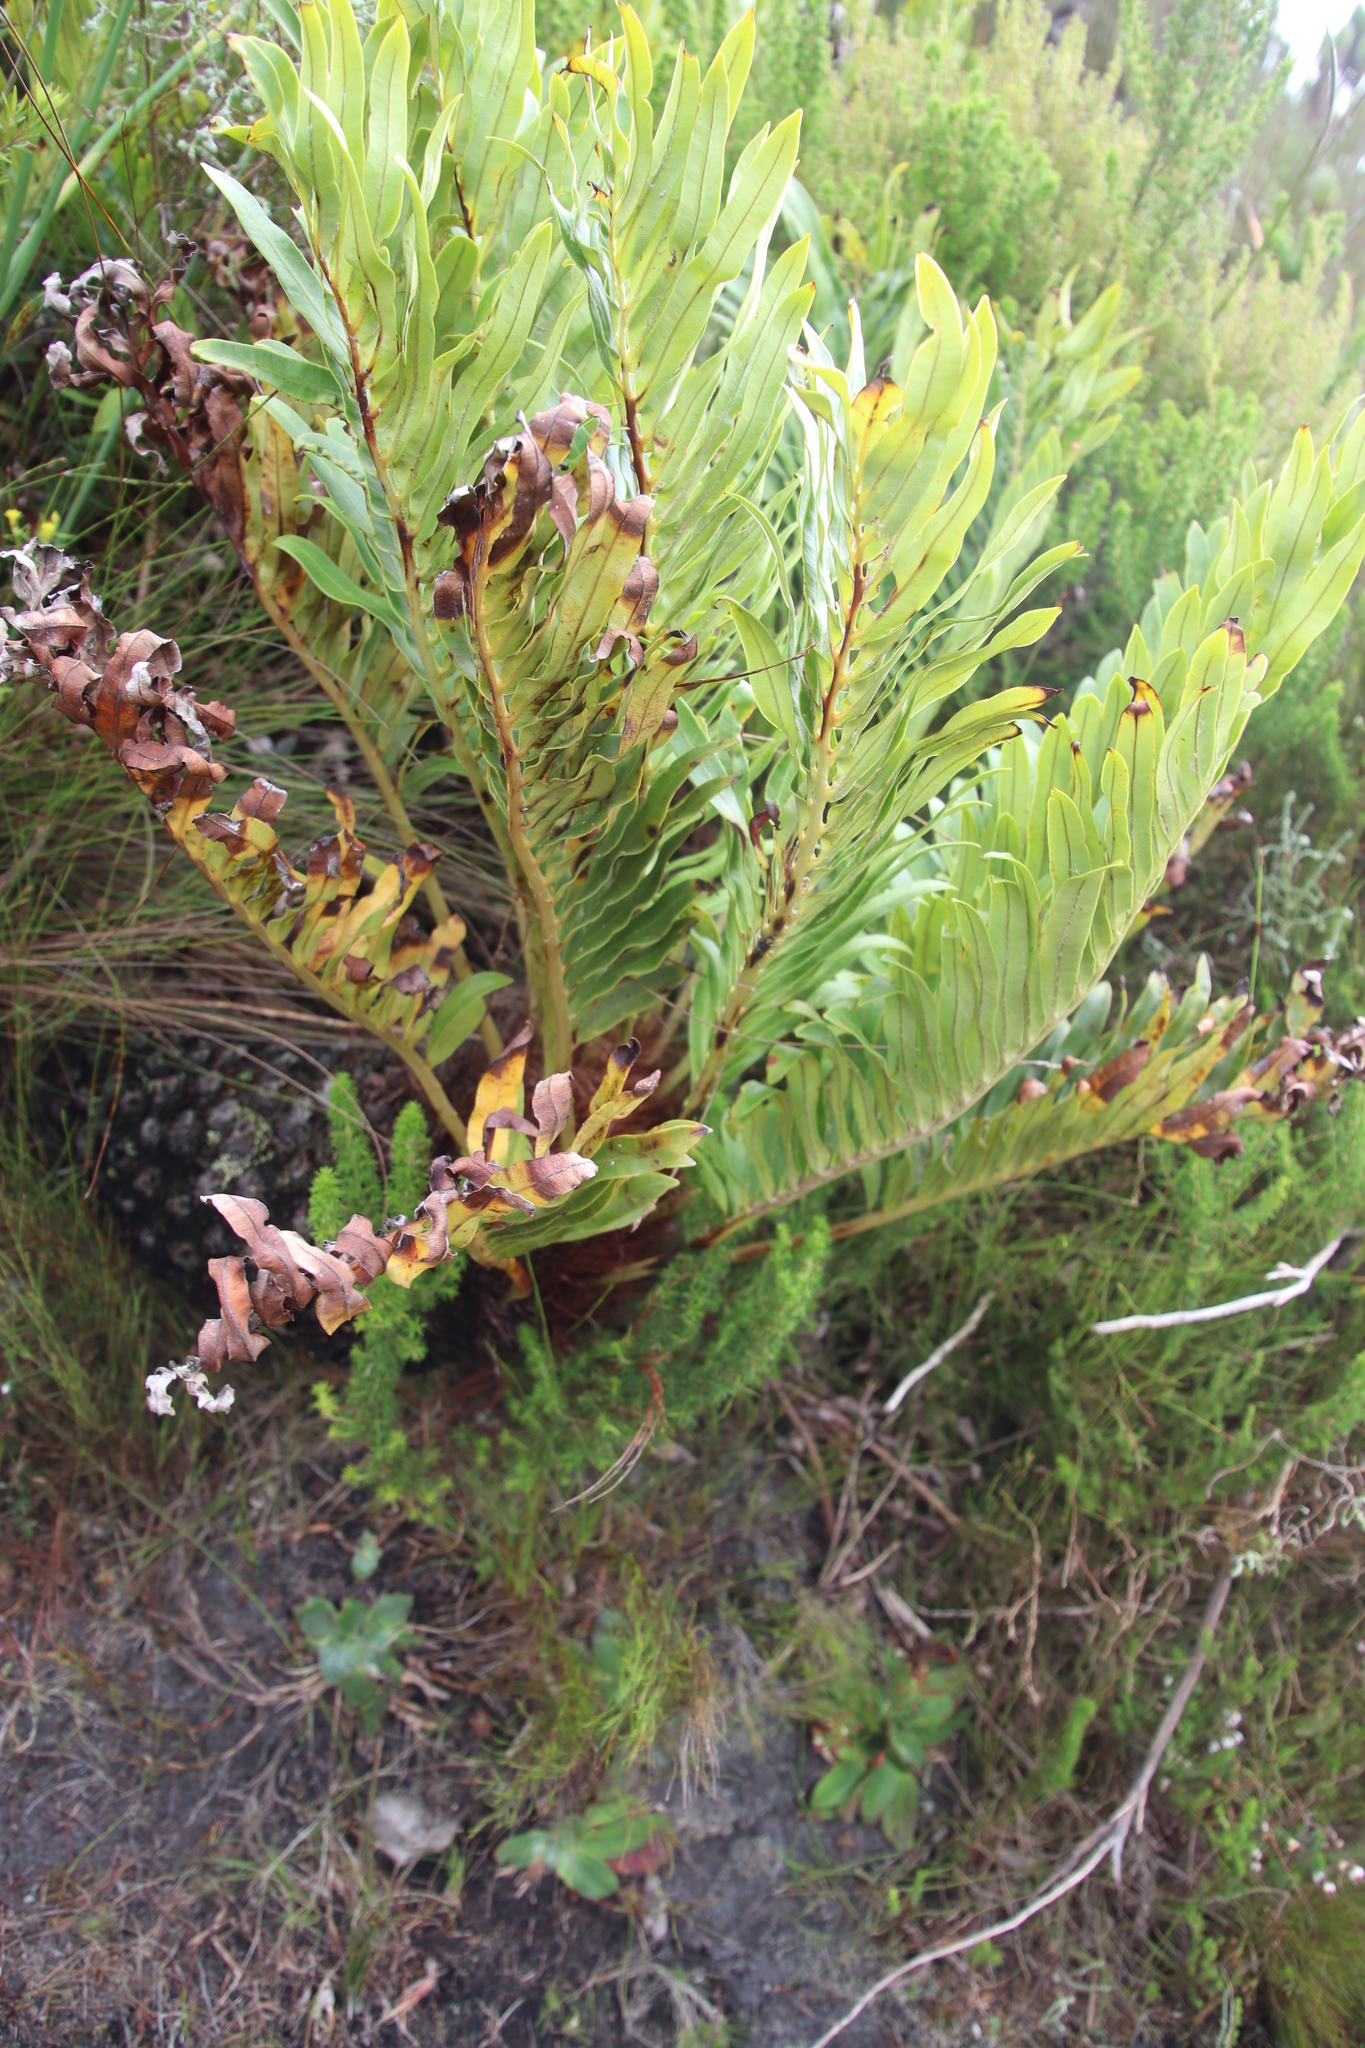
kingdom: Plantae
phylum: Tracheophyta
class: Polypodiopsida
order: Polypodiales
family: Blechnaceae
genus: Lomariocycas
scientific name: Lomariocycas tabularis
